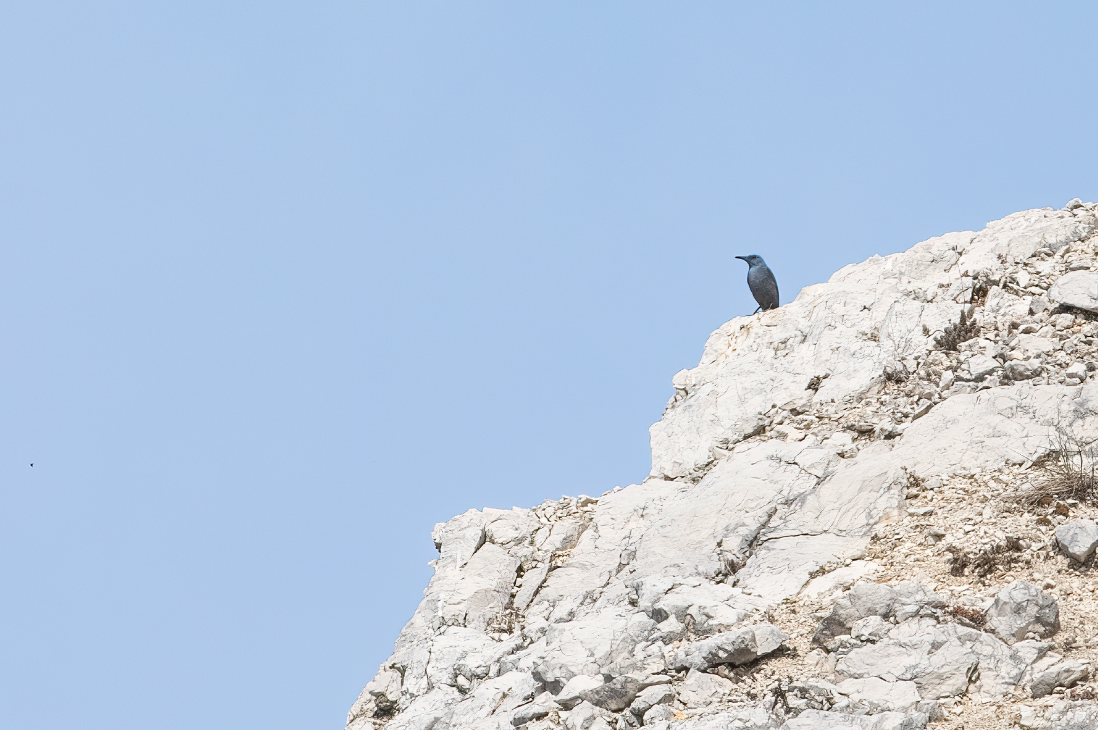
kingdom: Animalia
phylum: Chordata
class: Aves
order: Passeriformes
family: Muscicapidae
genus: Monticola
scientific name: Monticola solitarius
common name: Blue rock thrush
